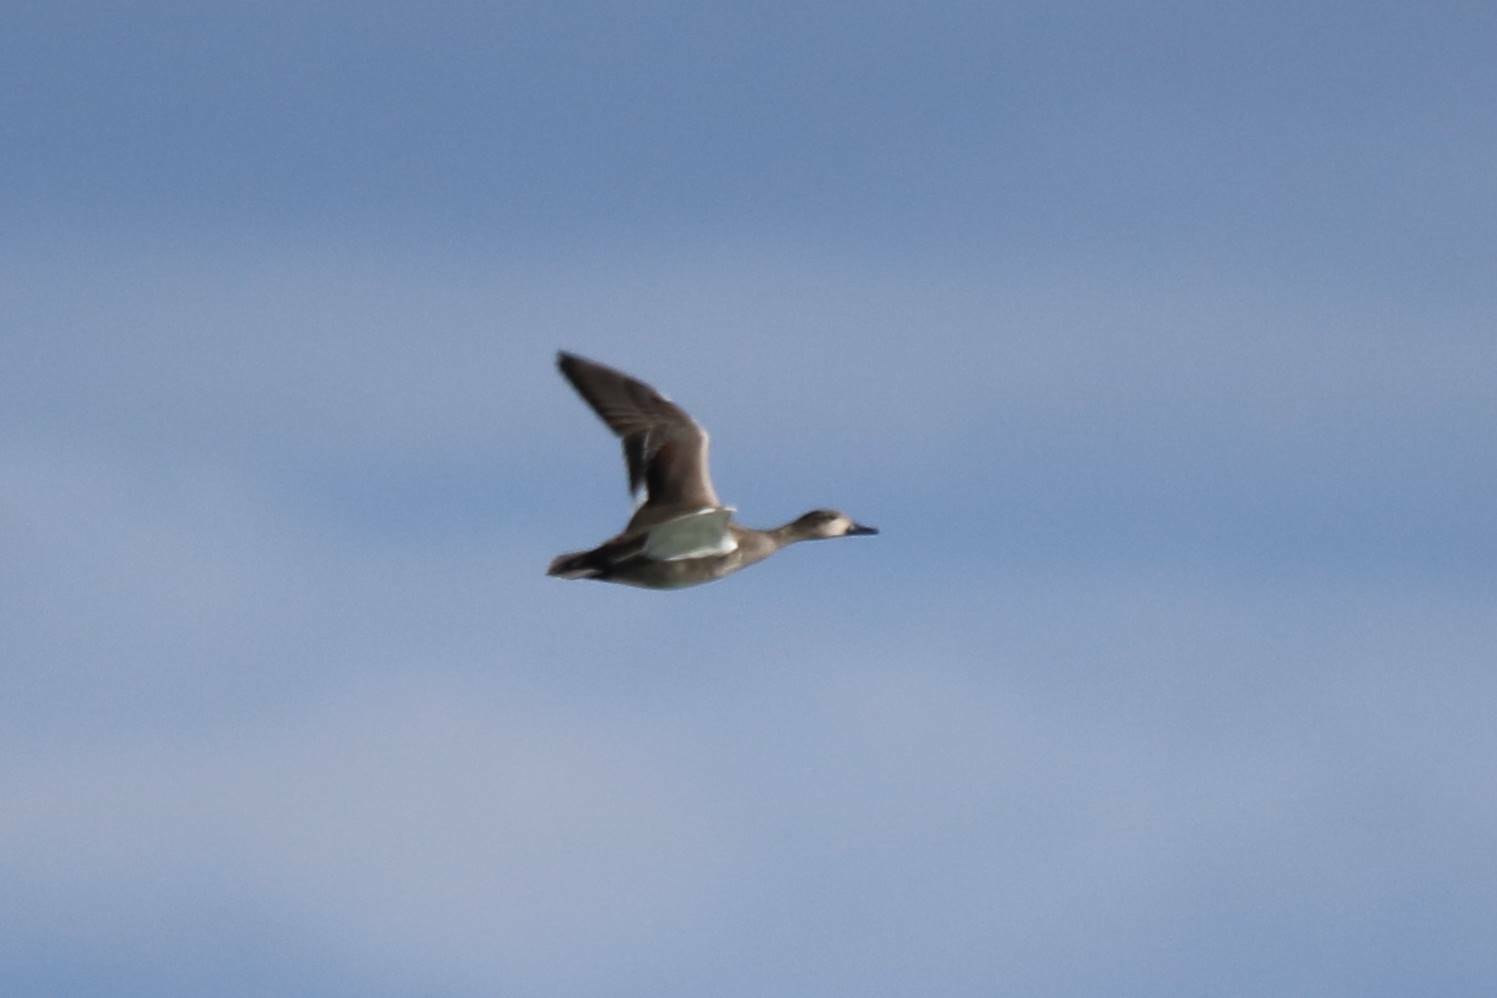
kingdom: Animalia
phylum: Chordata
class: Aves
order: Anseriformes
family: Anatidae
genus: Mareca
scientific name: Mareca penelope
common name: Eurasian wigeon
